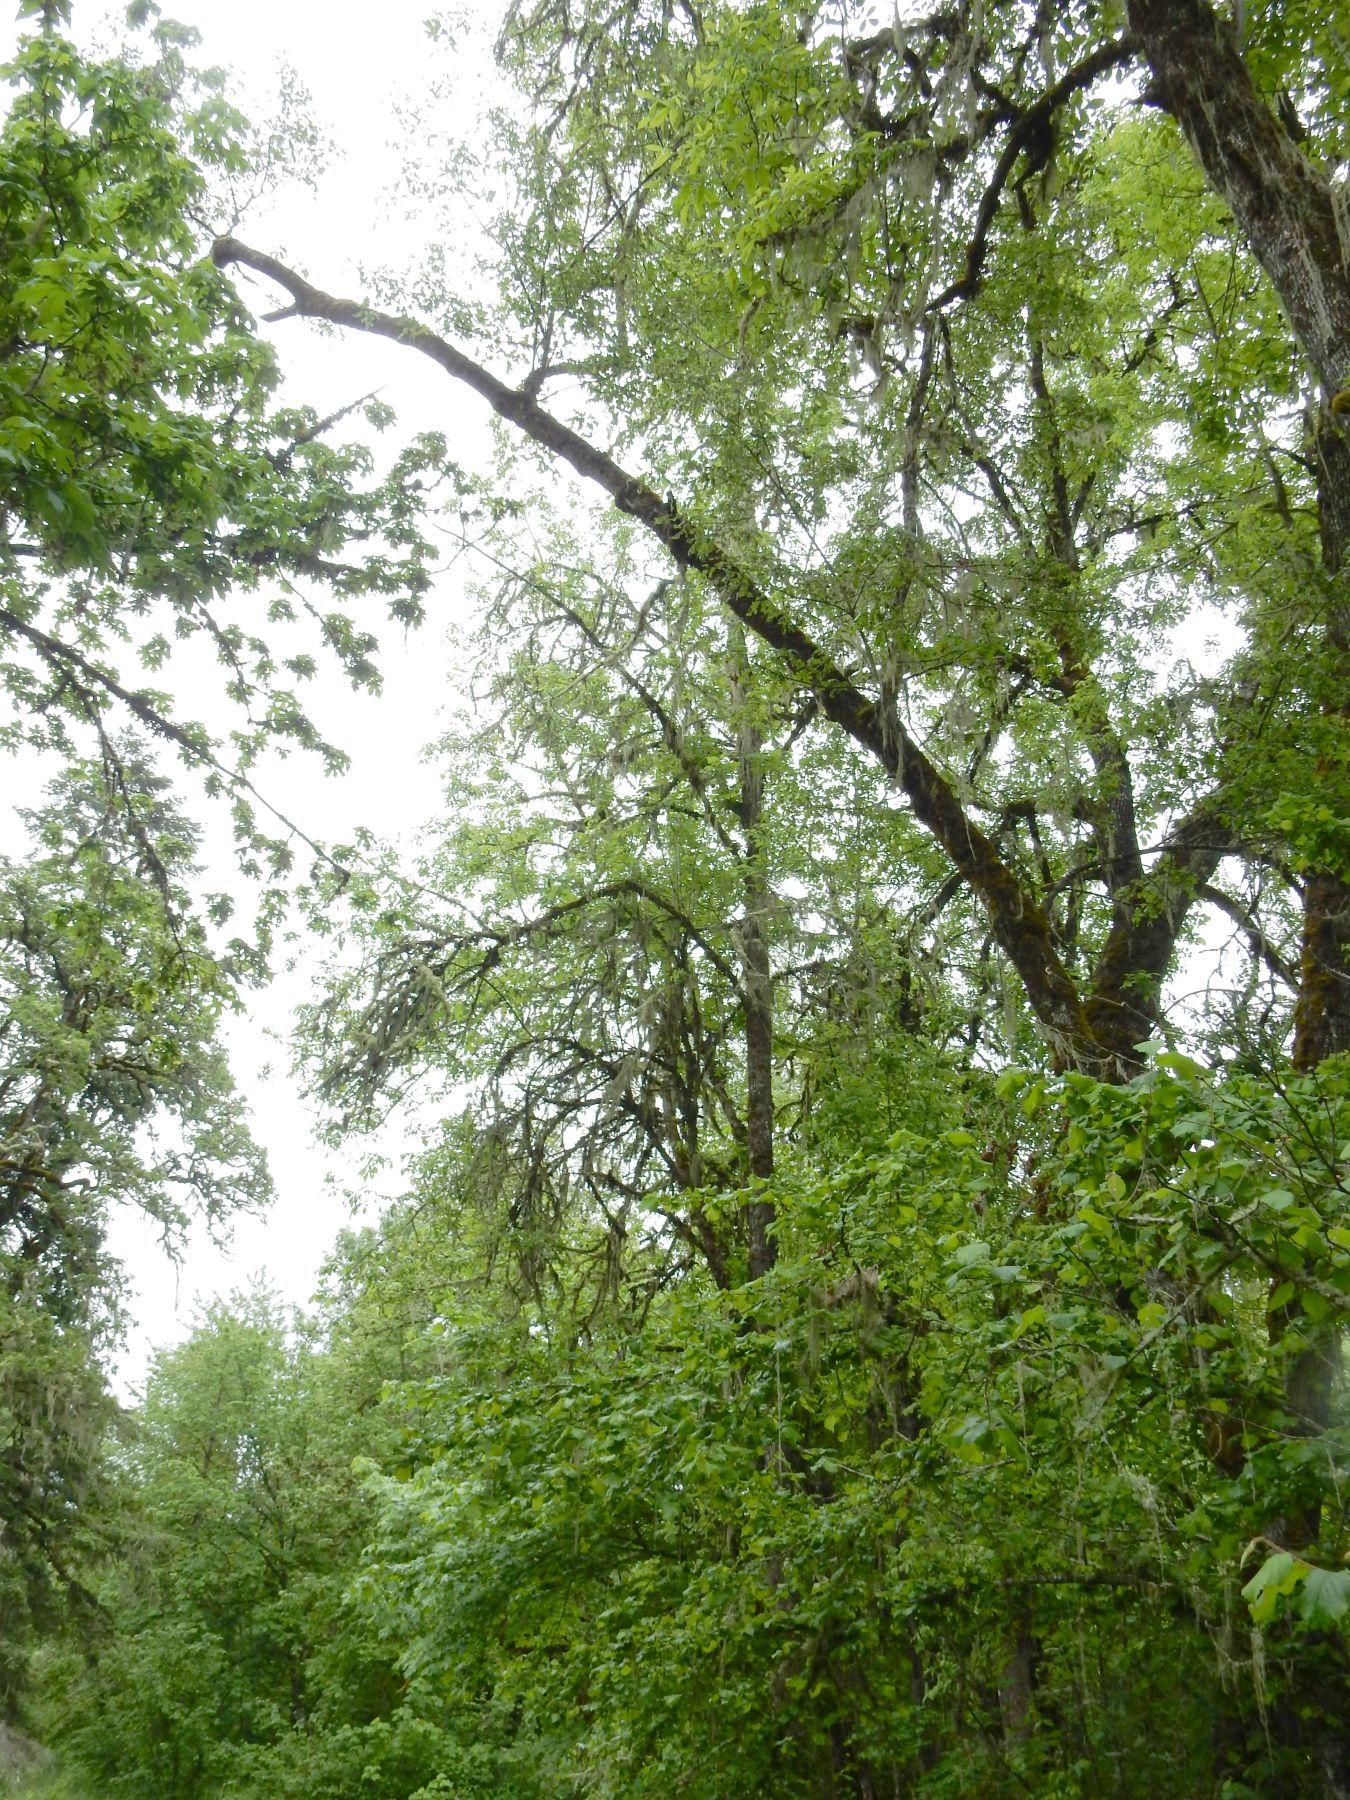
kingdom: Plantae
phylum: Tracheophyta
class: Magnoliopsida
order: Fagales
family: Fagaceae
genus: Quercus
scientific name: Quercus kelloggii
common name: California black oak
